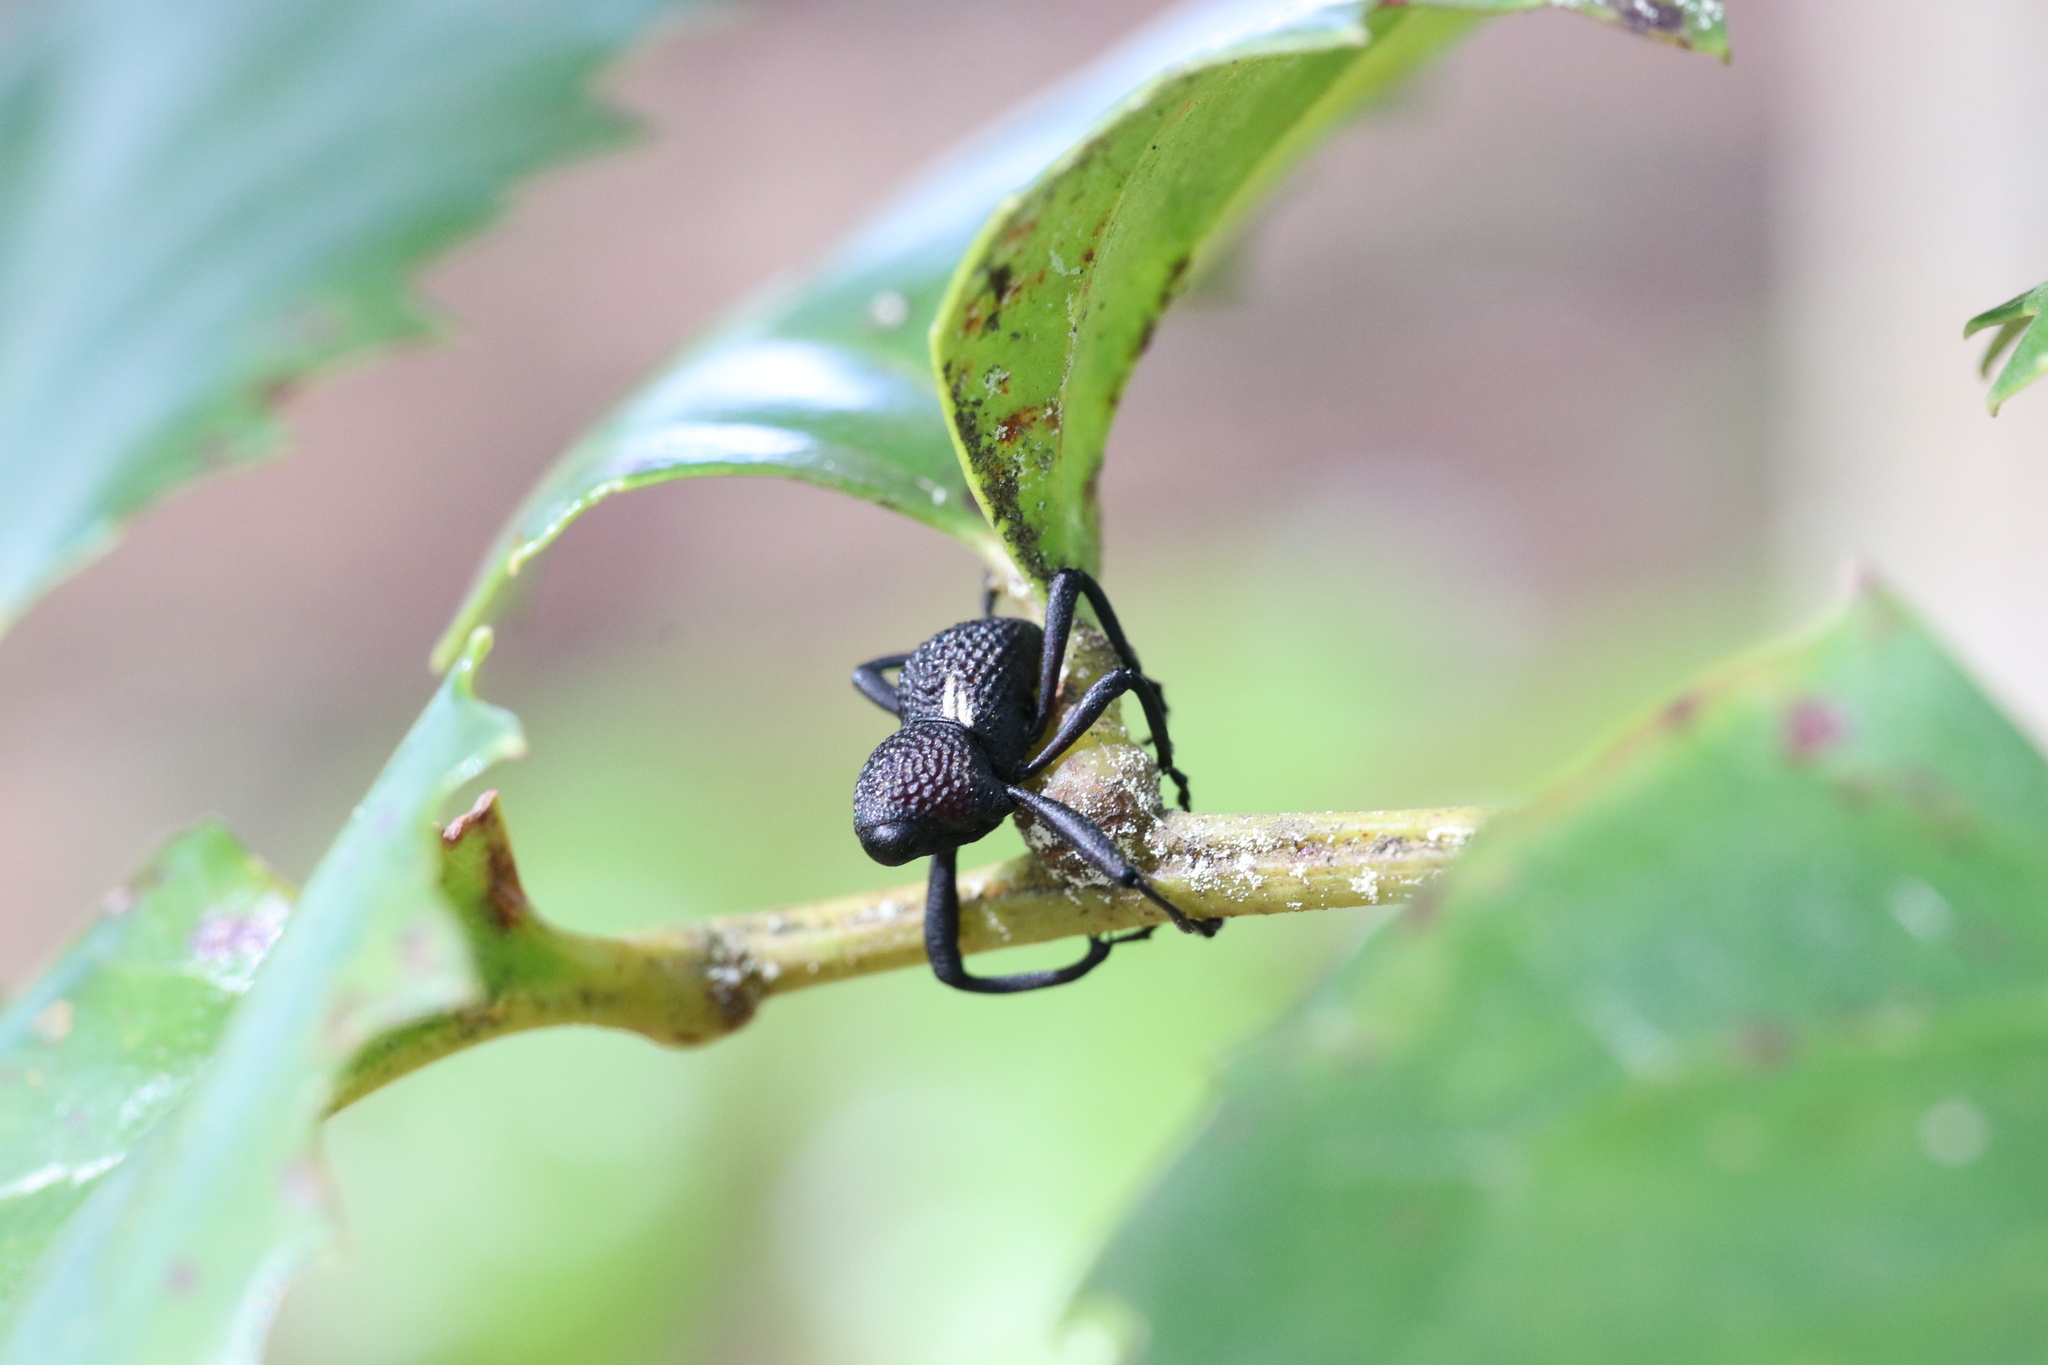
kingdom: Animalia
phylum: Arthropoda
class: Insecta
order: Coleoptera
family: Curculionidae
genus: Rhyephenes
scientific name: Rhyephenes humeralis
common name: Araè±ita chilena del pino
